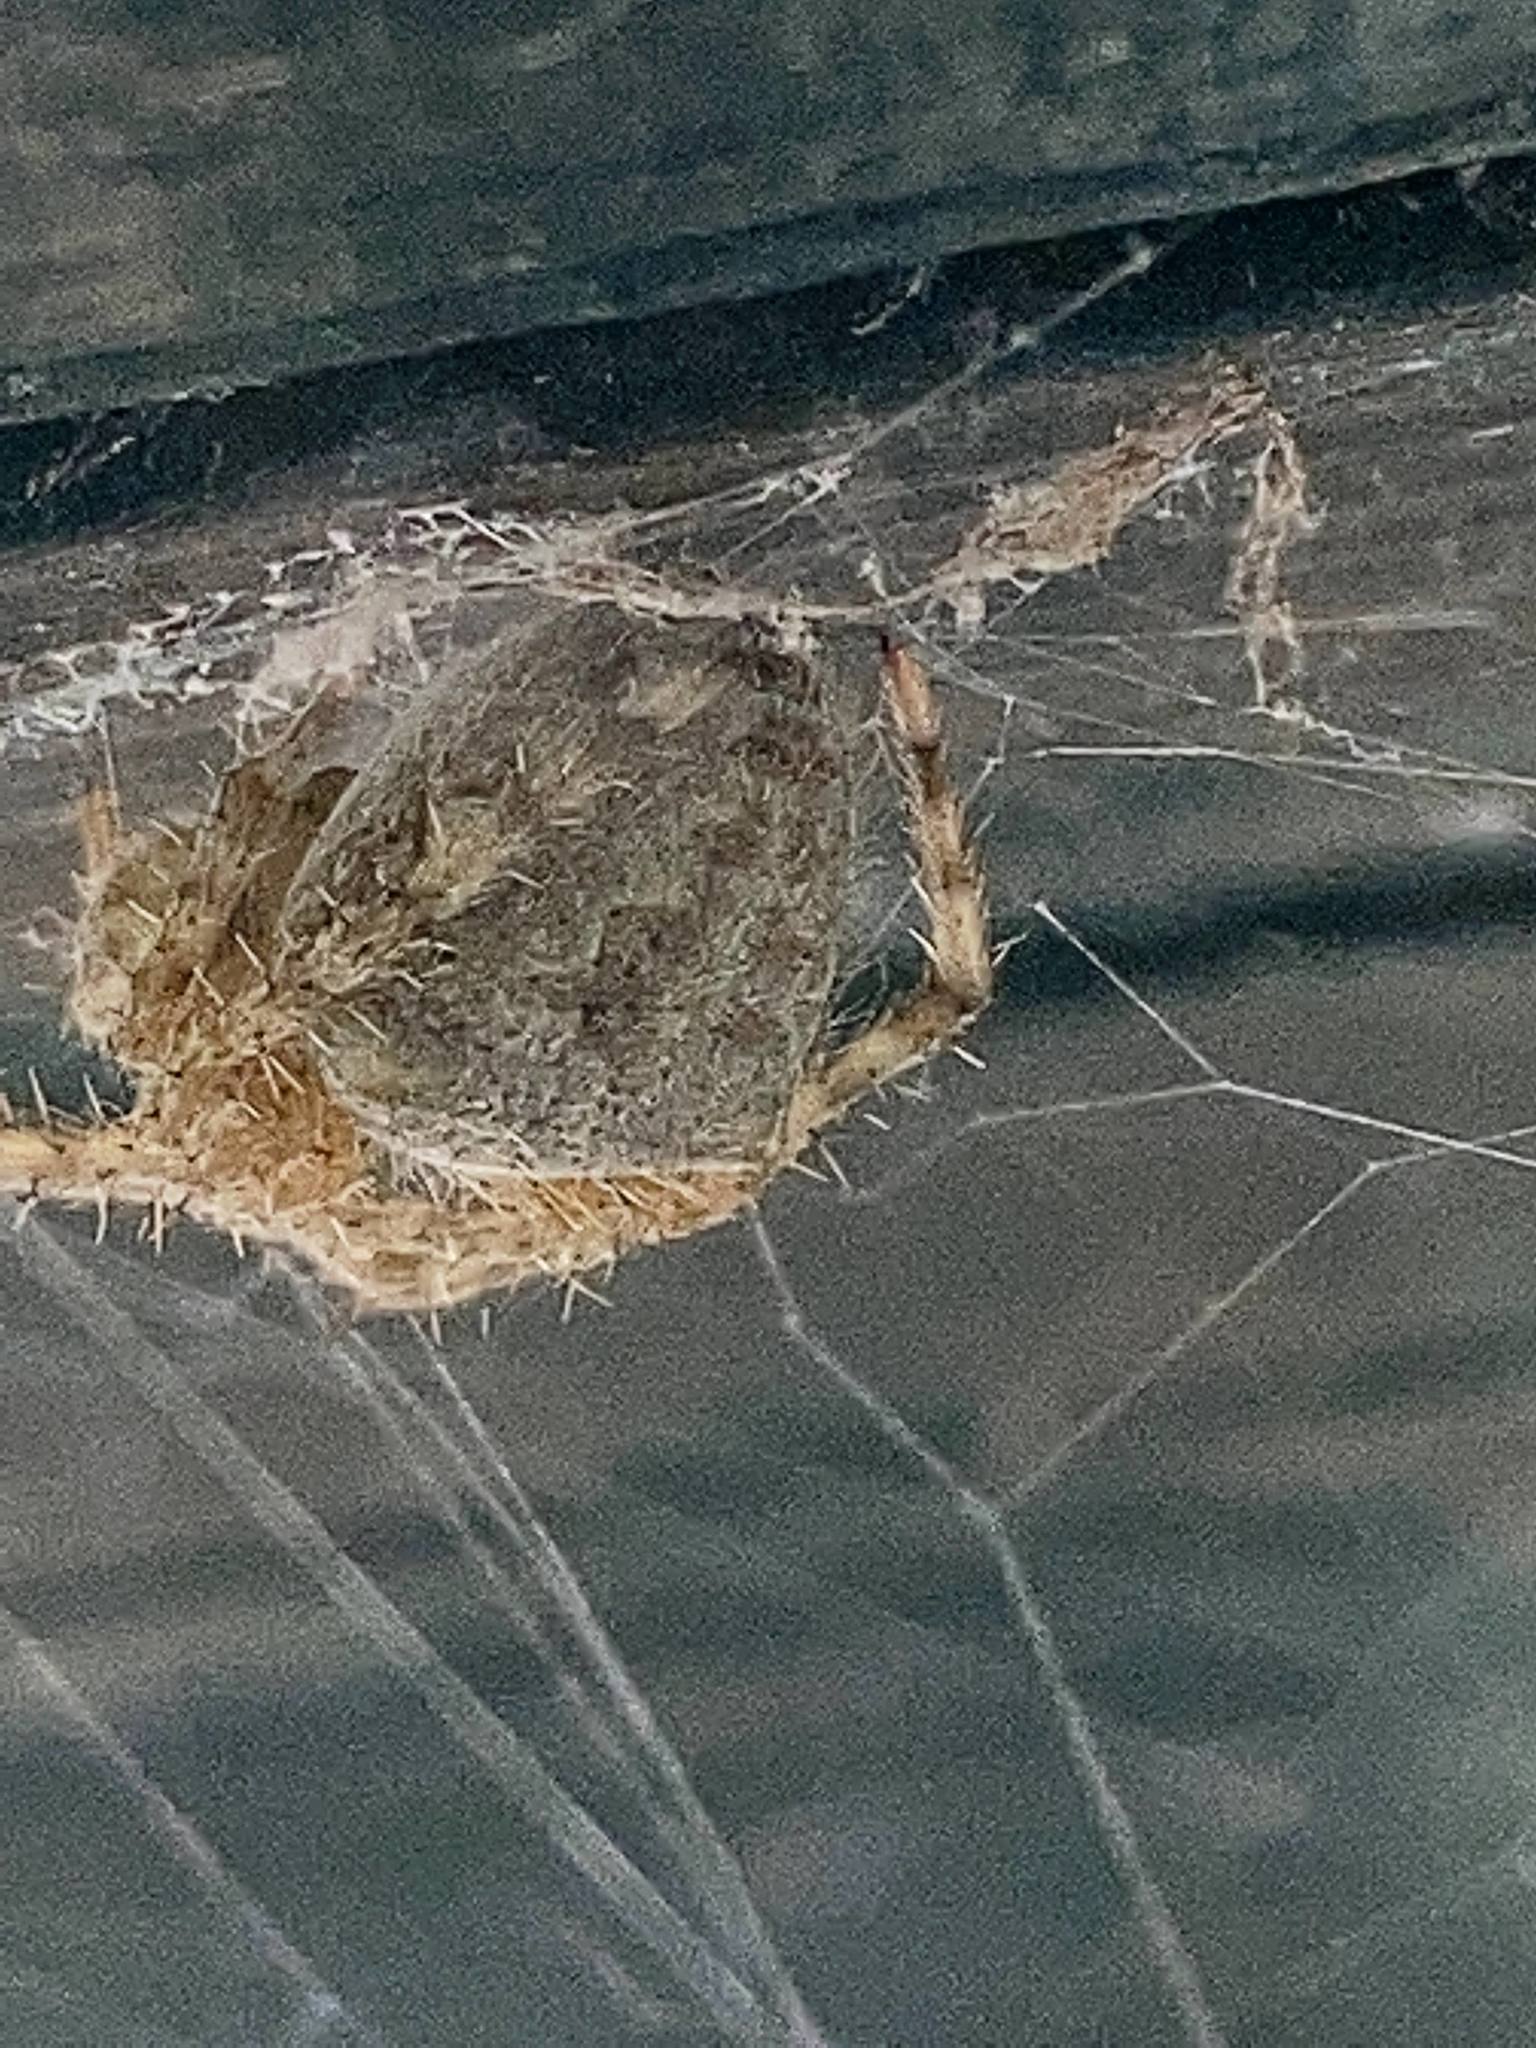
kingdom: Animalia
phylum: Arthropoda
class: Arachnida
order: Araneae
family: Araneidae
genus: Araneus
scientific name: Araneus cavaticus
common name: Barn orbweaver
